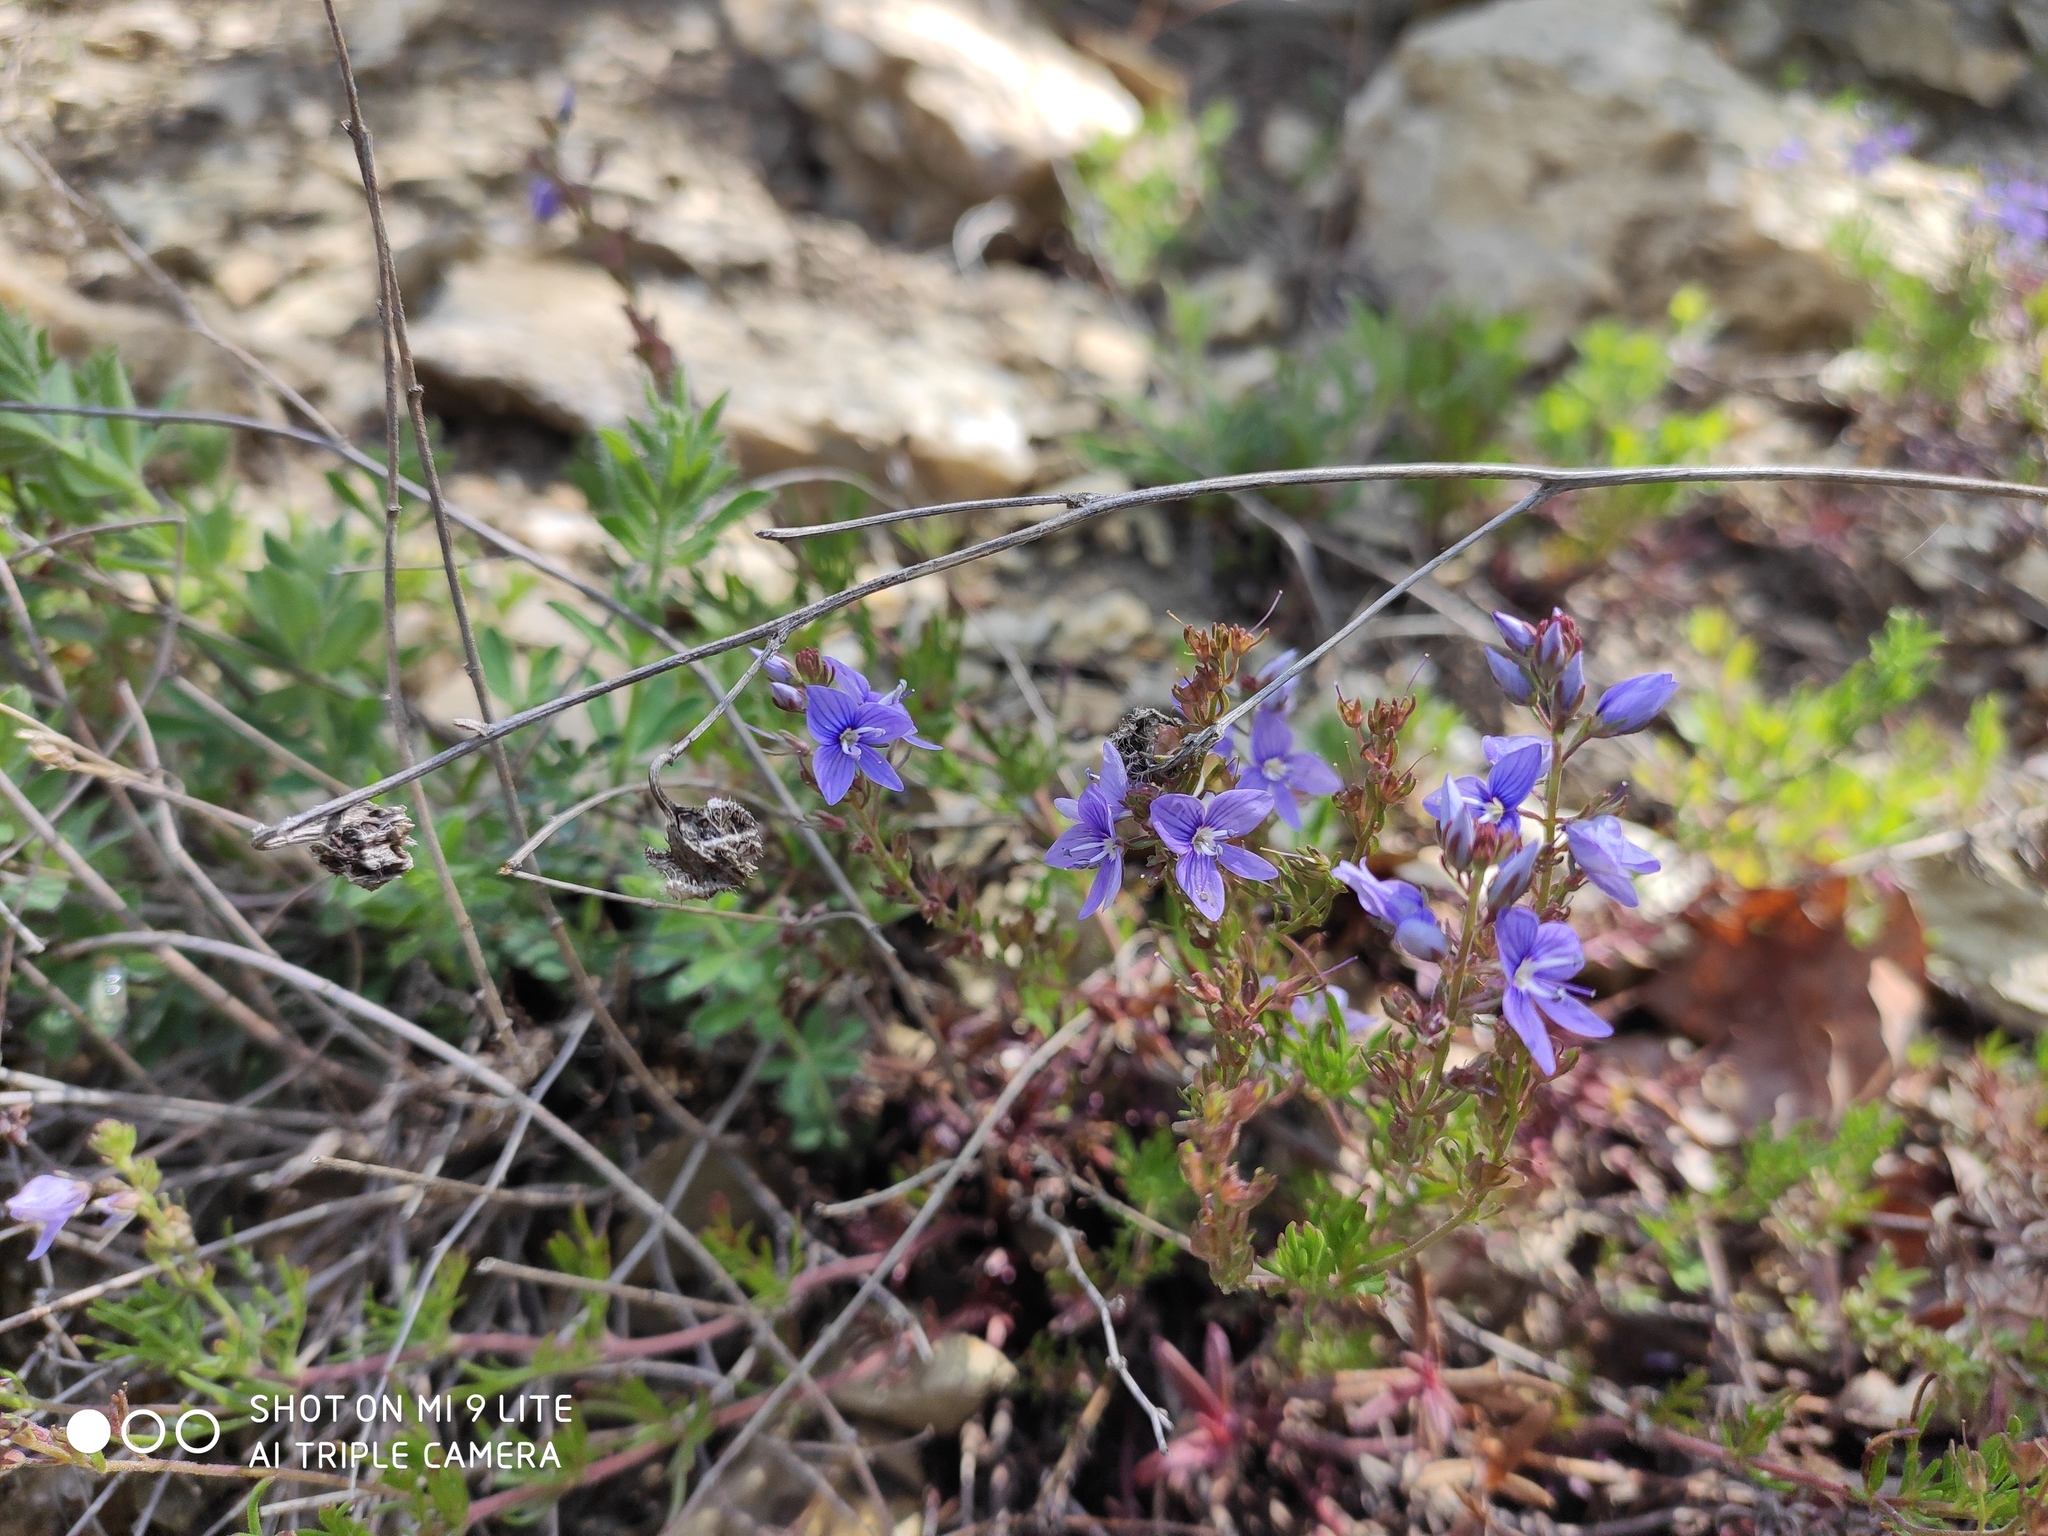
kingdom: Plantae
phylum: Tracheophyta
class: Magnoliopsida
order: Lamiales
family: Plantaginaceae
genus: Veronica
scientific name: Veronica capsellicarpa
